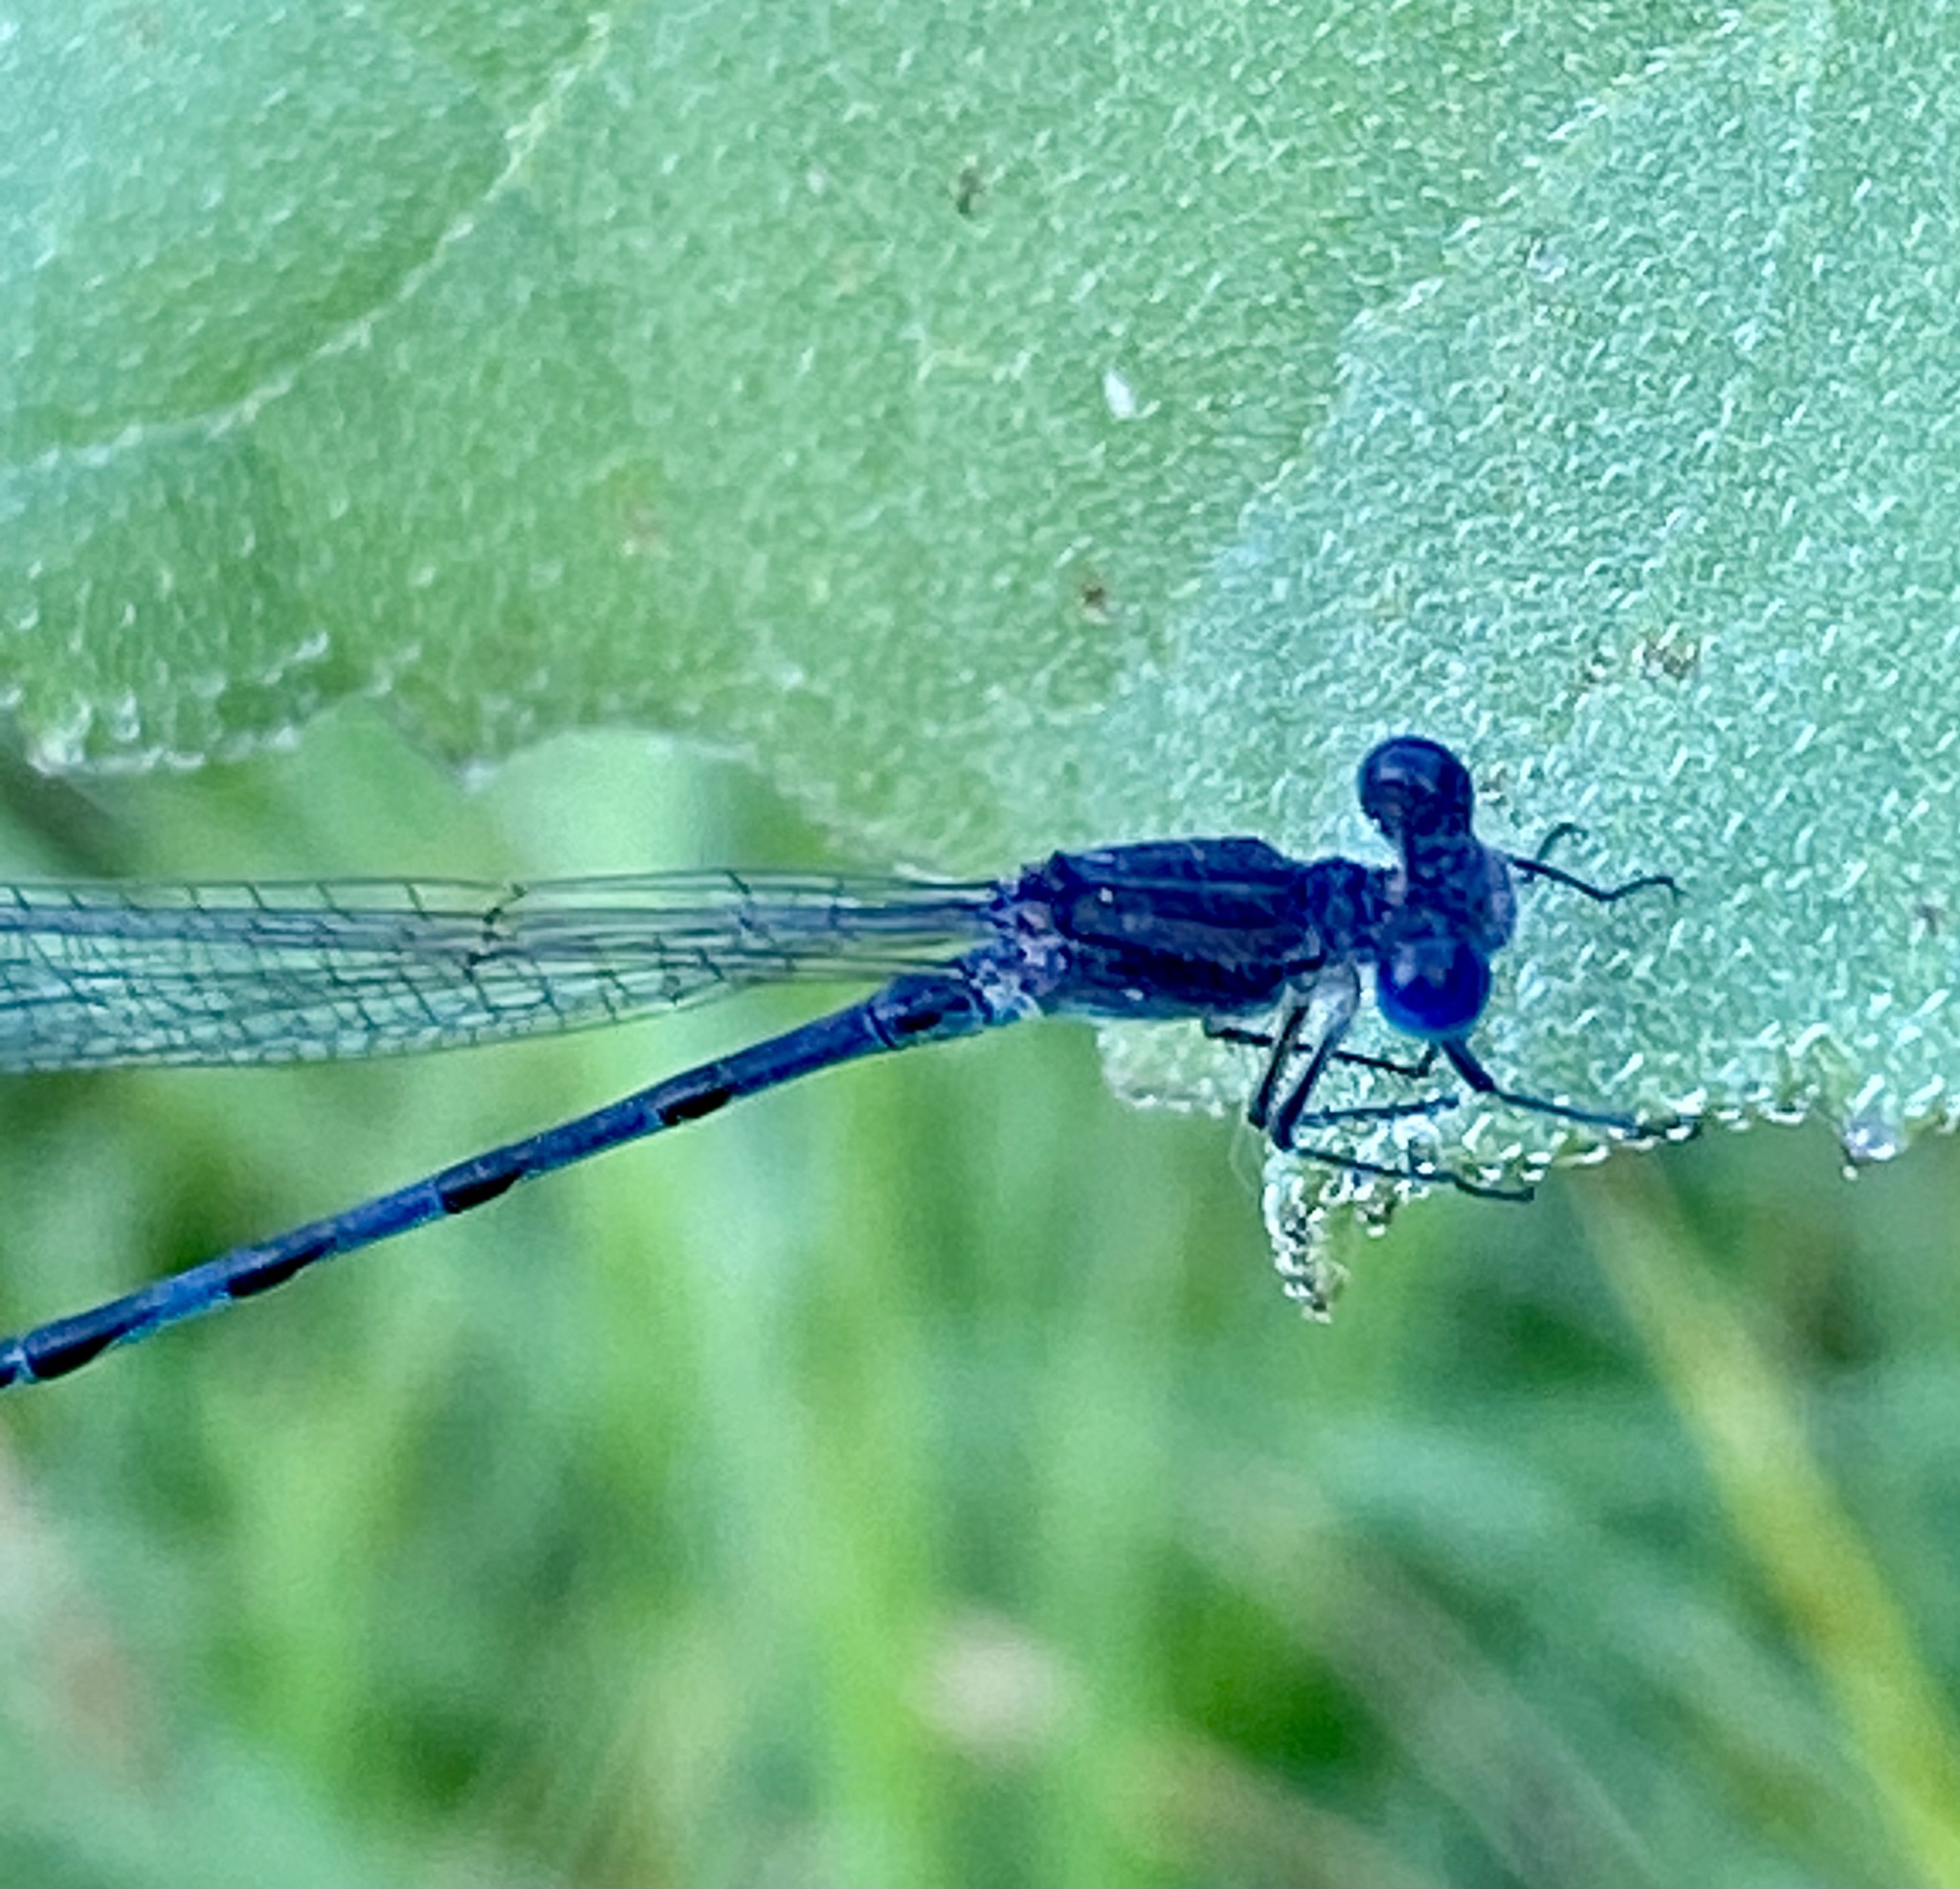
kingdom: Animalia
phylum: Arthropoda
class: Insecta
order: Odonata
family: Coenagrionidae
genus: Argia
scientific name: Argia leonorae
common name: Leonora's dancer
